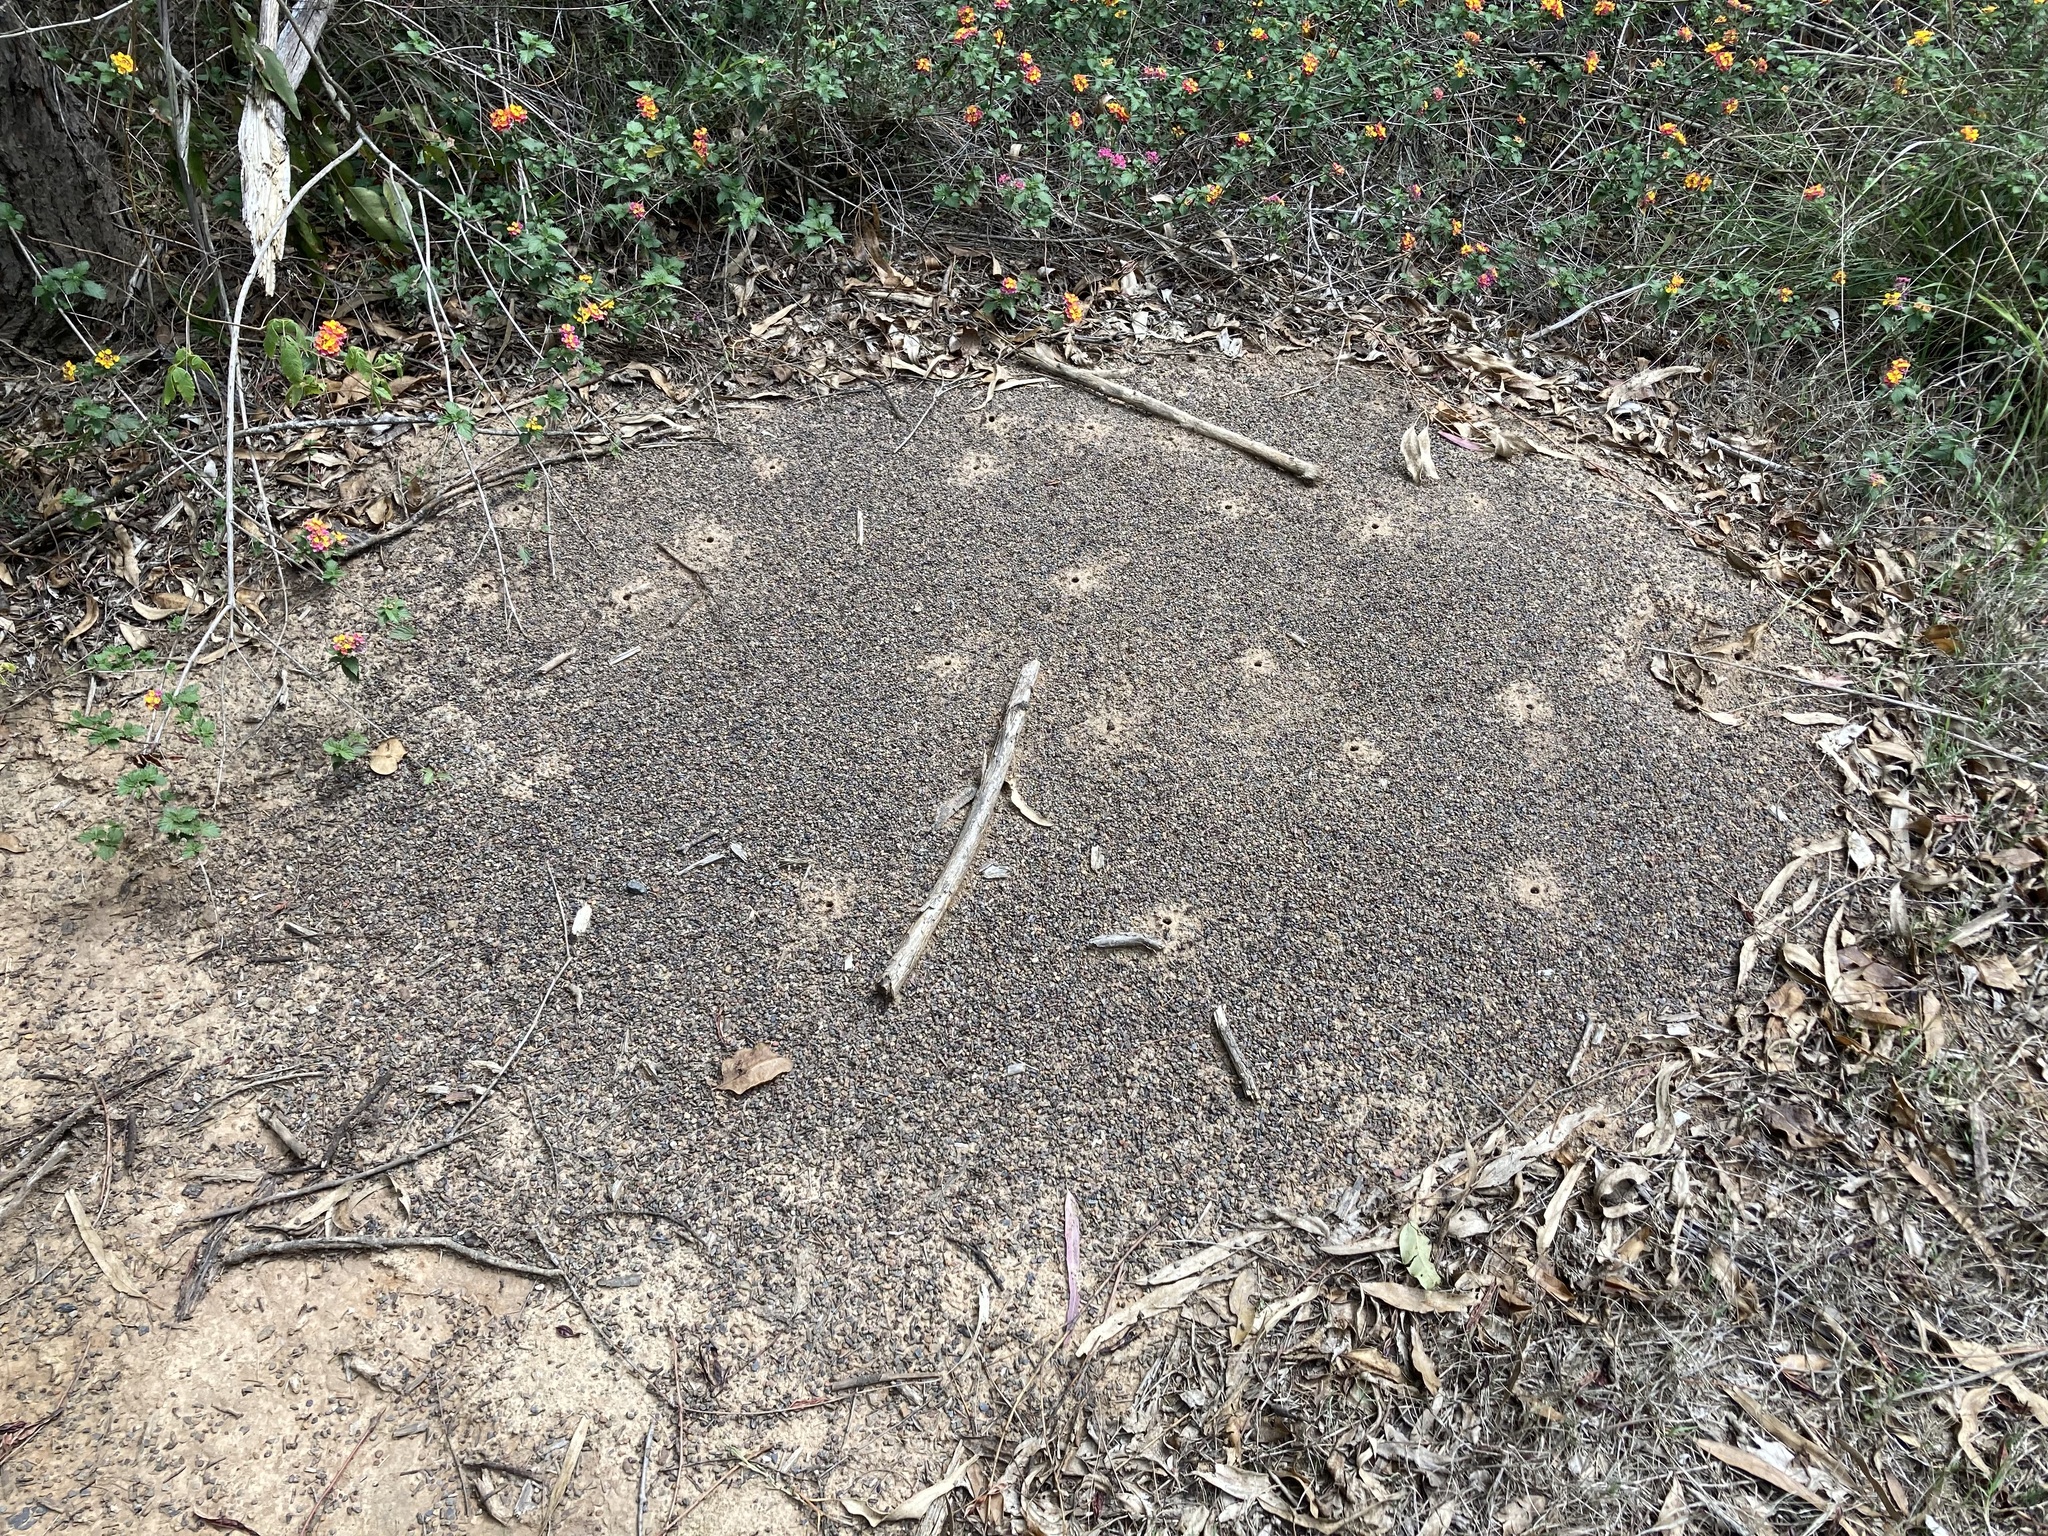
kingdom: Animalia
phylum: Arthropoda
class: Insecta
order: Hymenoptera
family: Formicidae
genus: Iridomyrmex
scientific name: Iridomyrmex purpureus
